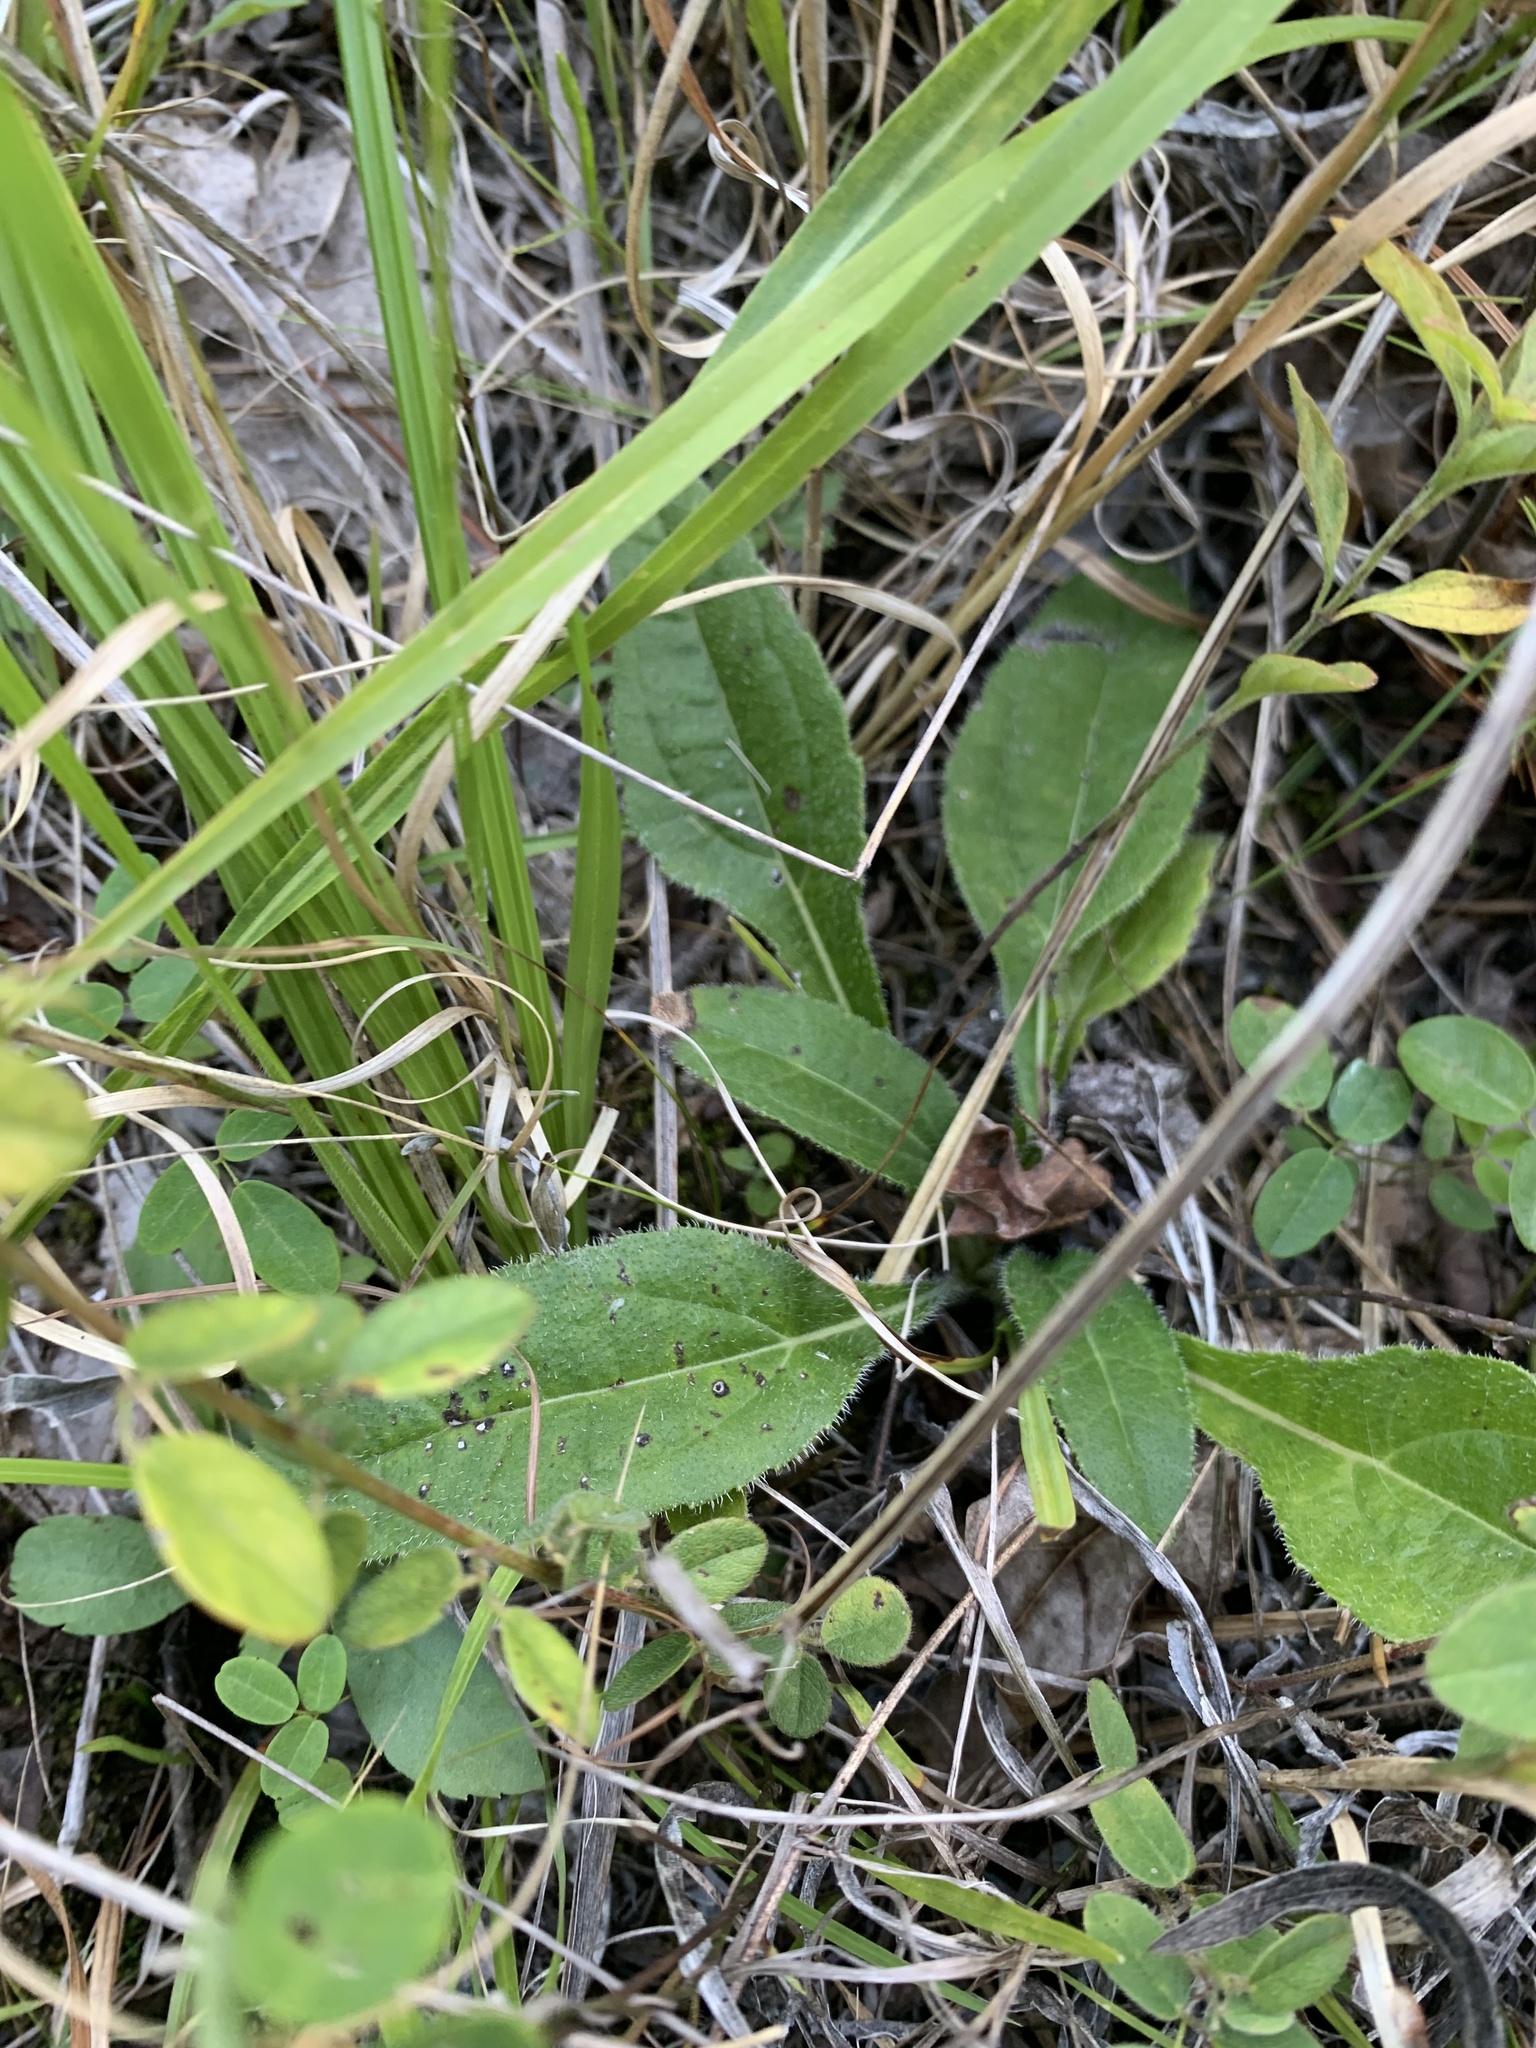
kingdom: Plantae
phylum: Tracheophyta
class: Magnoliopsida
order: Asterales
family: Asteraceae
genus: Helianthus
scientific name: Helianthus atrorubens
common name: Dark-eyed sunflower
